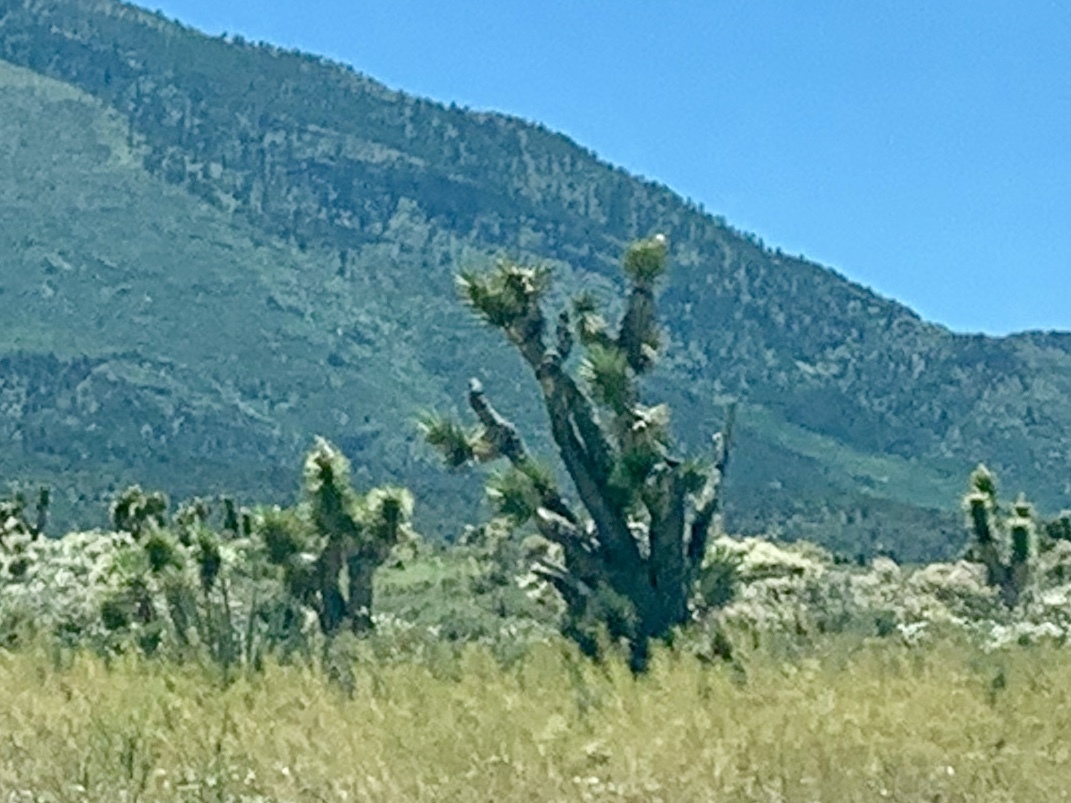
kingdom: Plantae
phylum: Tracheophyta
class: Liliopsida
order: Asparagales
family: Asparagaceae
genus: Yucca
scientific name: Yucca brevifolia
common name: Joshua tree
